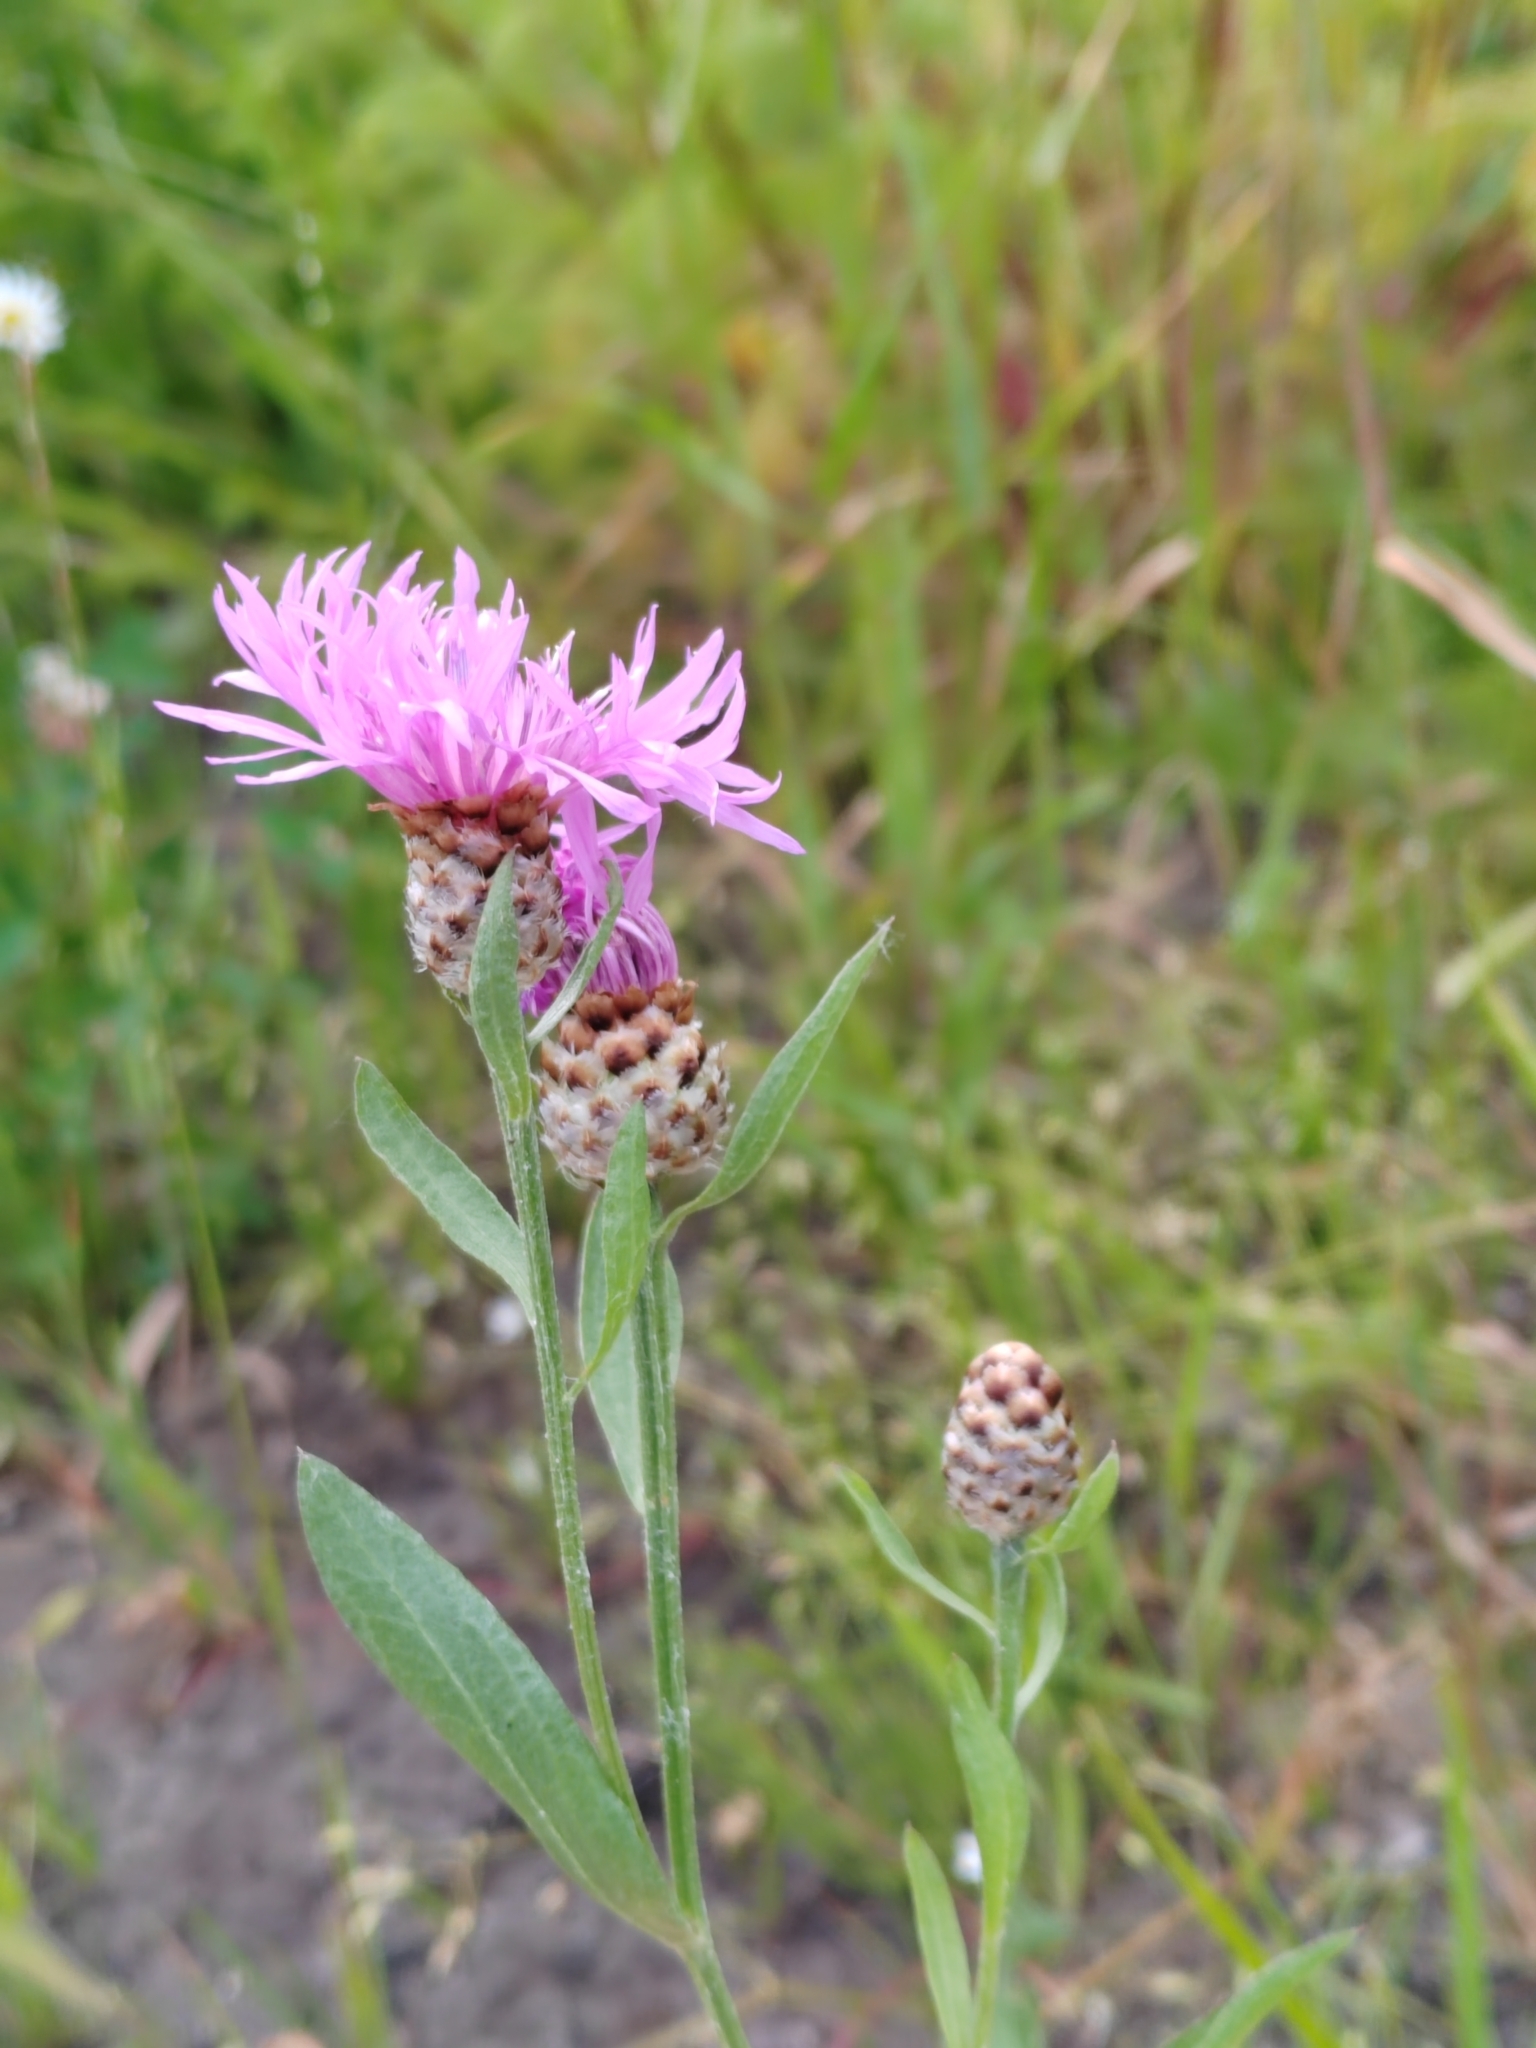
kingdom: Plantae
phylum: Tracheophyta
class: Magnoliopsida
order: Asterales
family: Asteraceae
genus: Centaurea
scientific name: Centaurea jacea
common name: Brown knapweed
